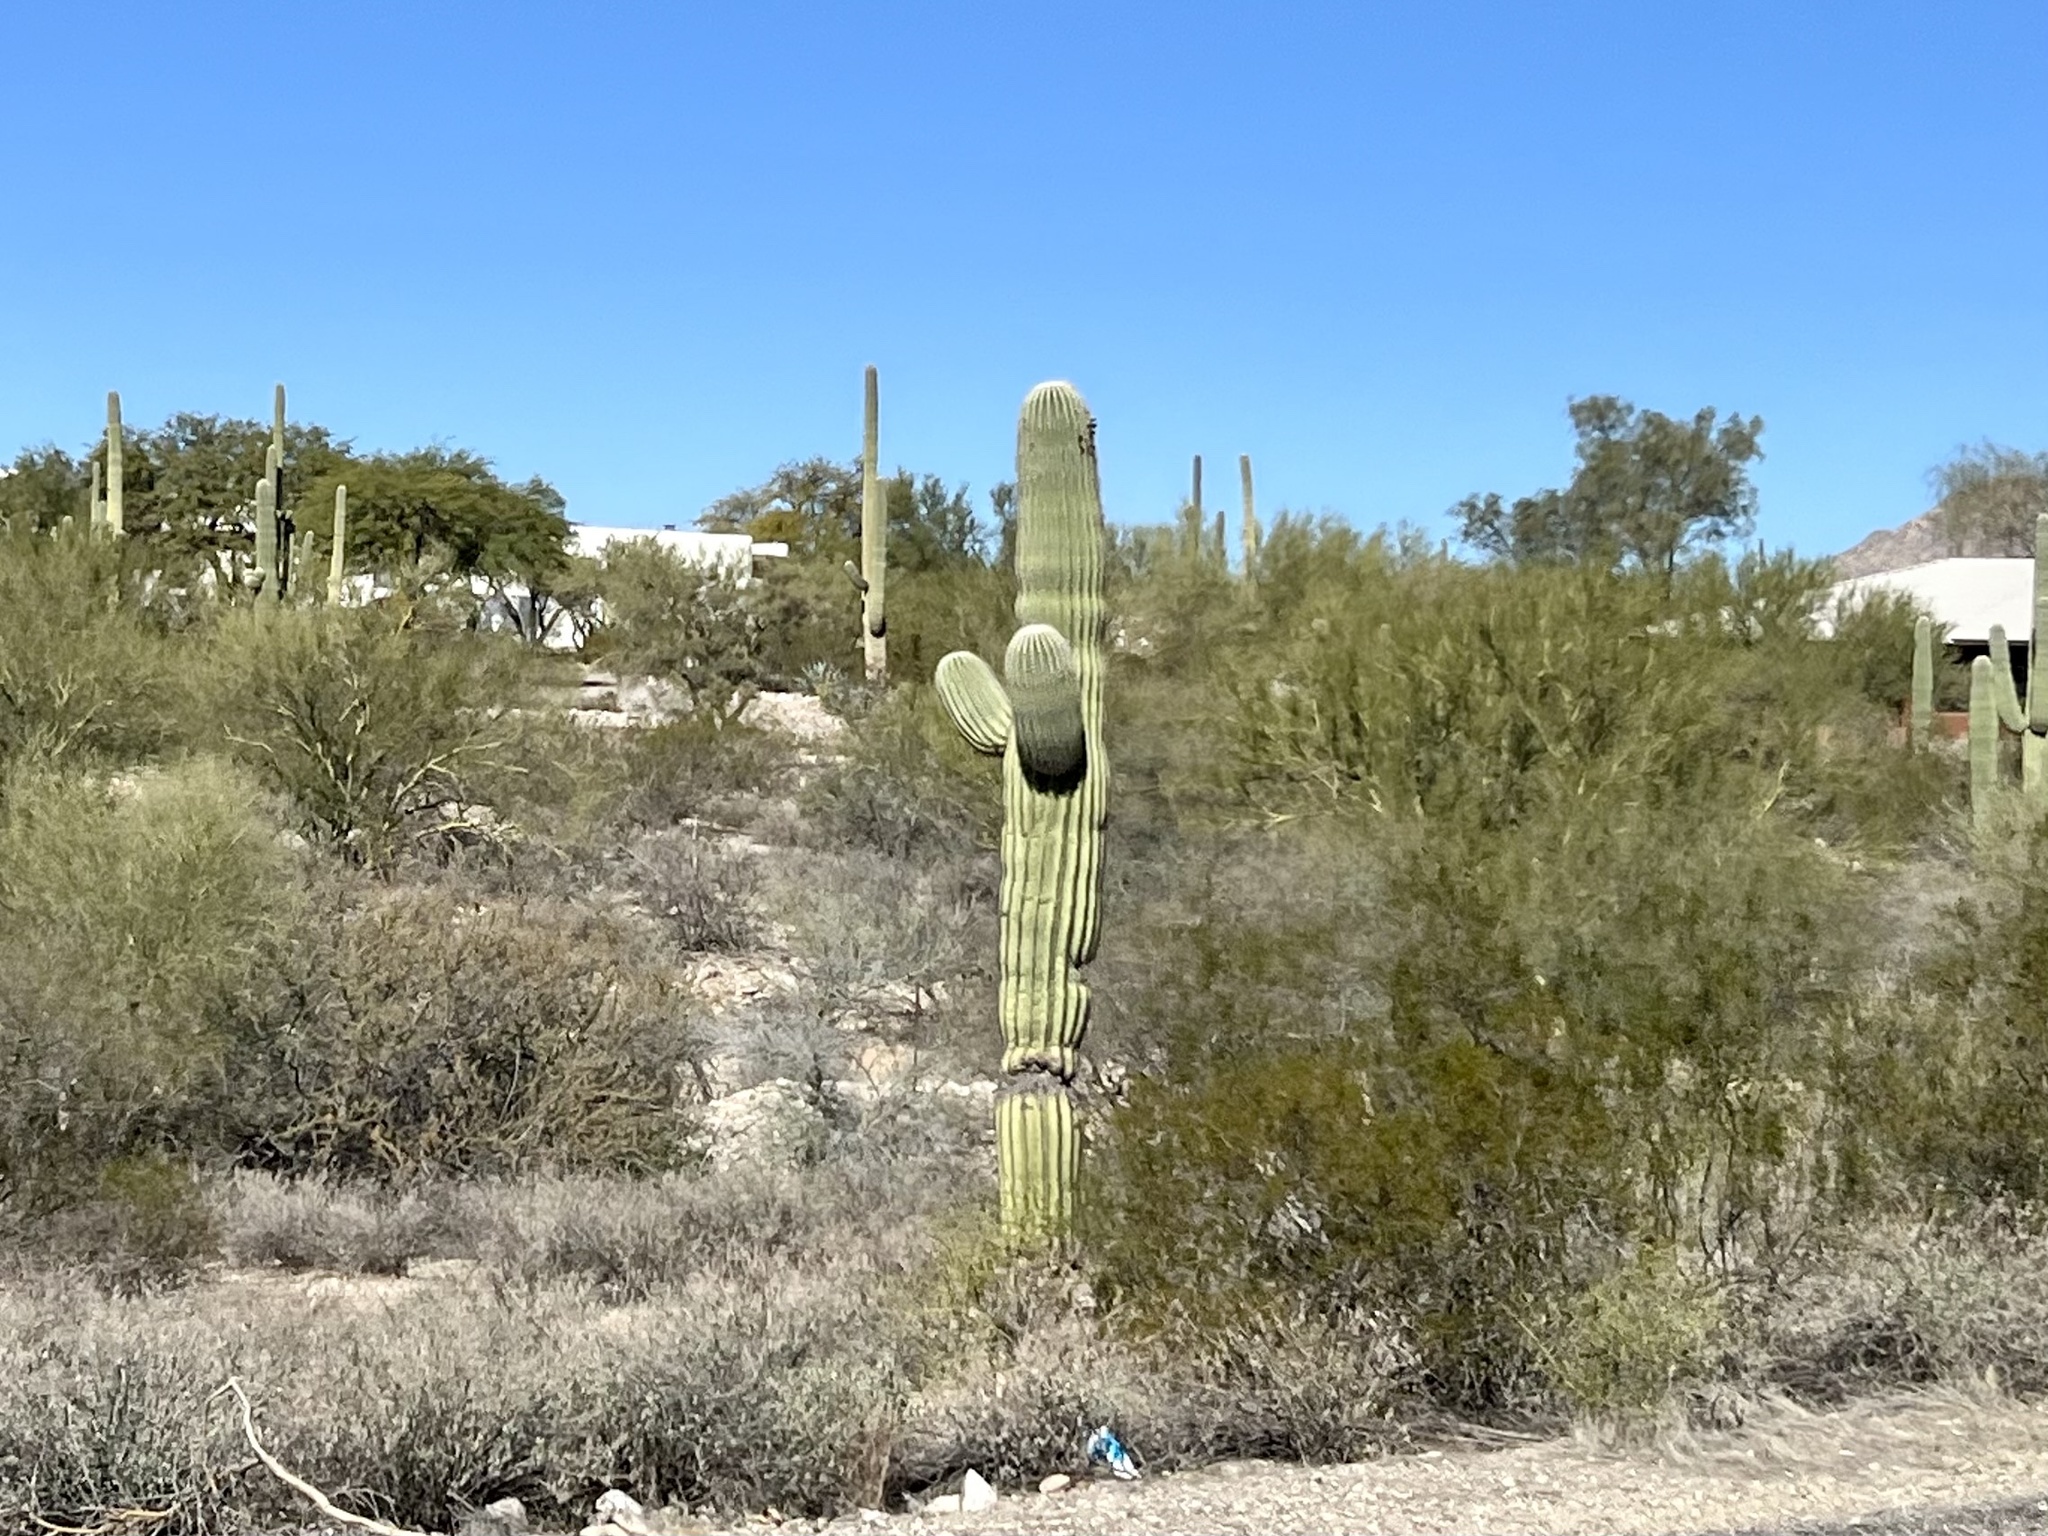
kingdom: Plantae
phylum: Tracheophyta
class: Magnoliopsida
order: Caryophyllales
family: Cactaceae
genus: Carnegiea
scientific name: Carnegiea gigantea
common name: Saguaro
